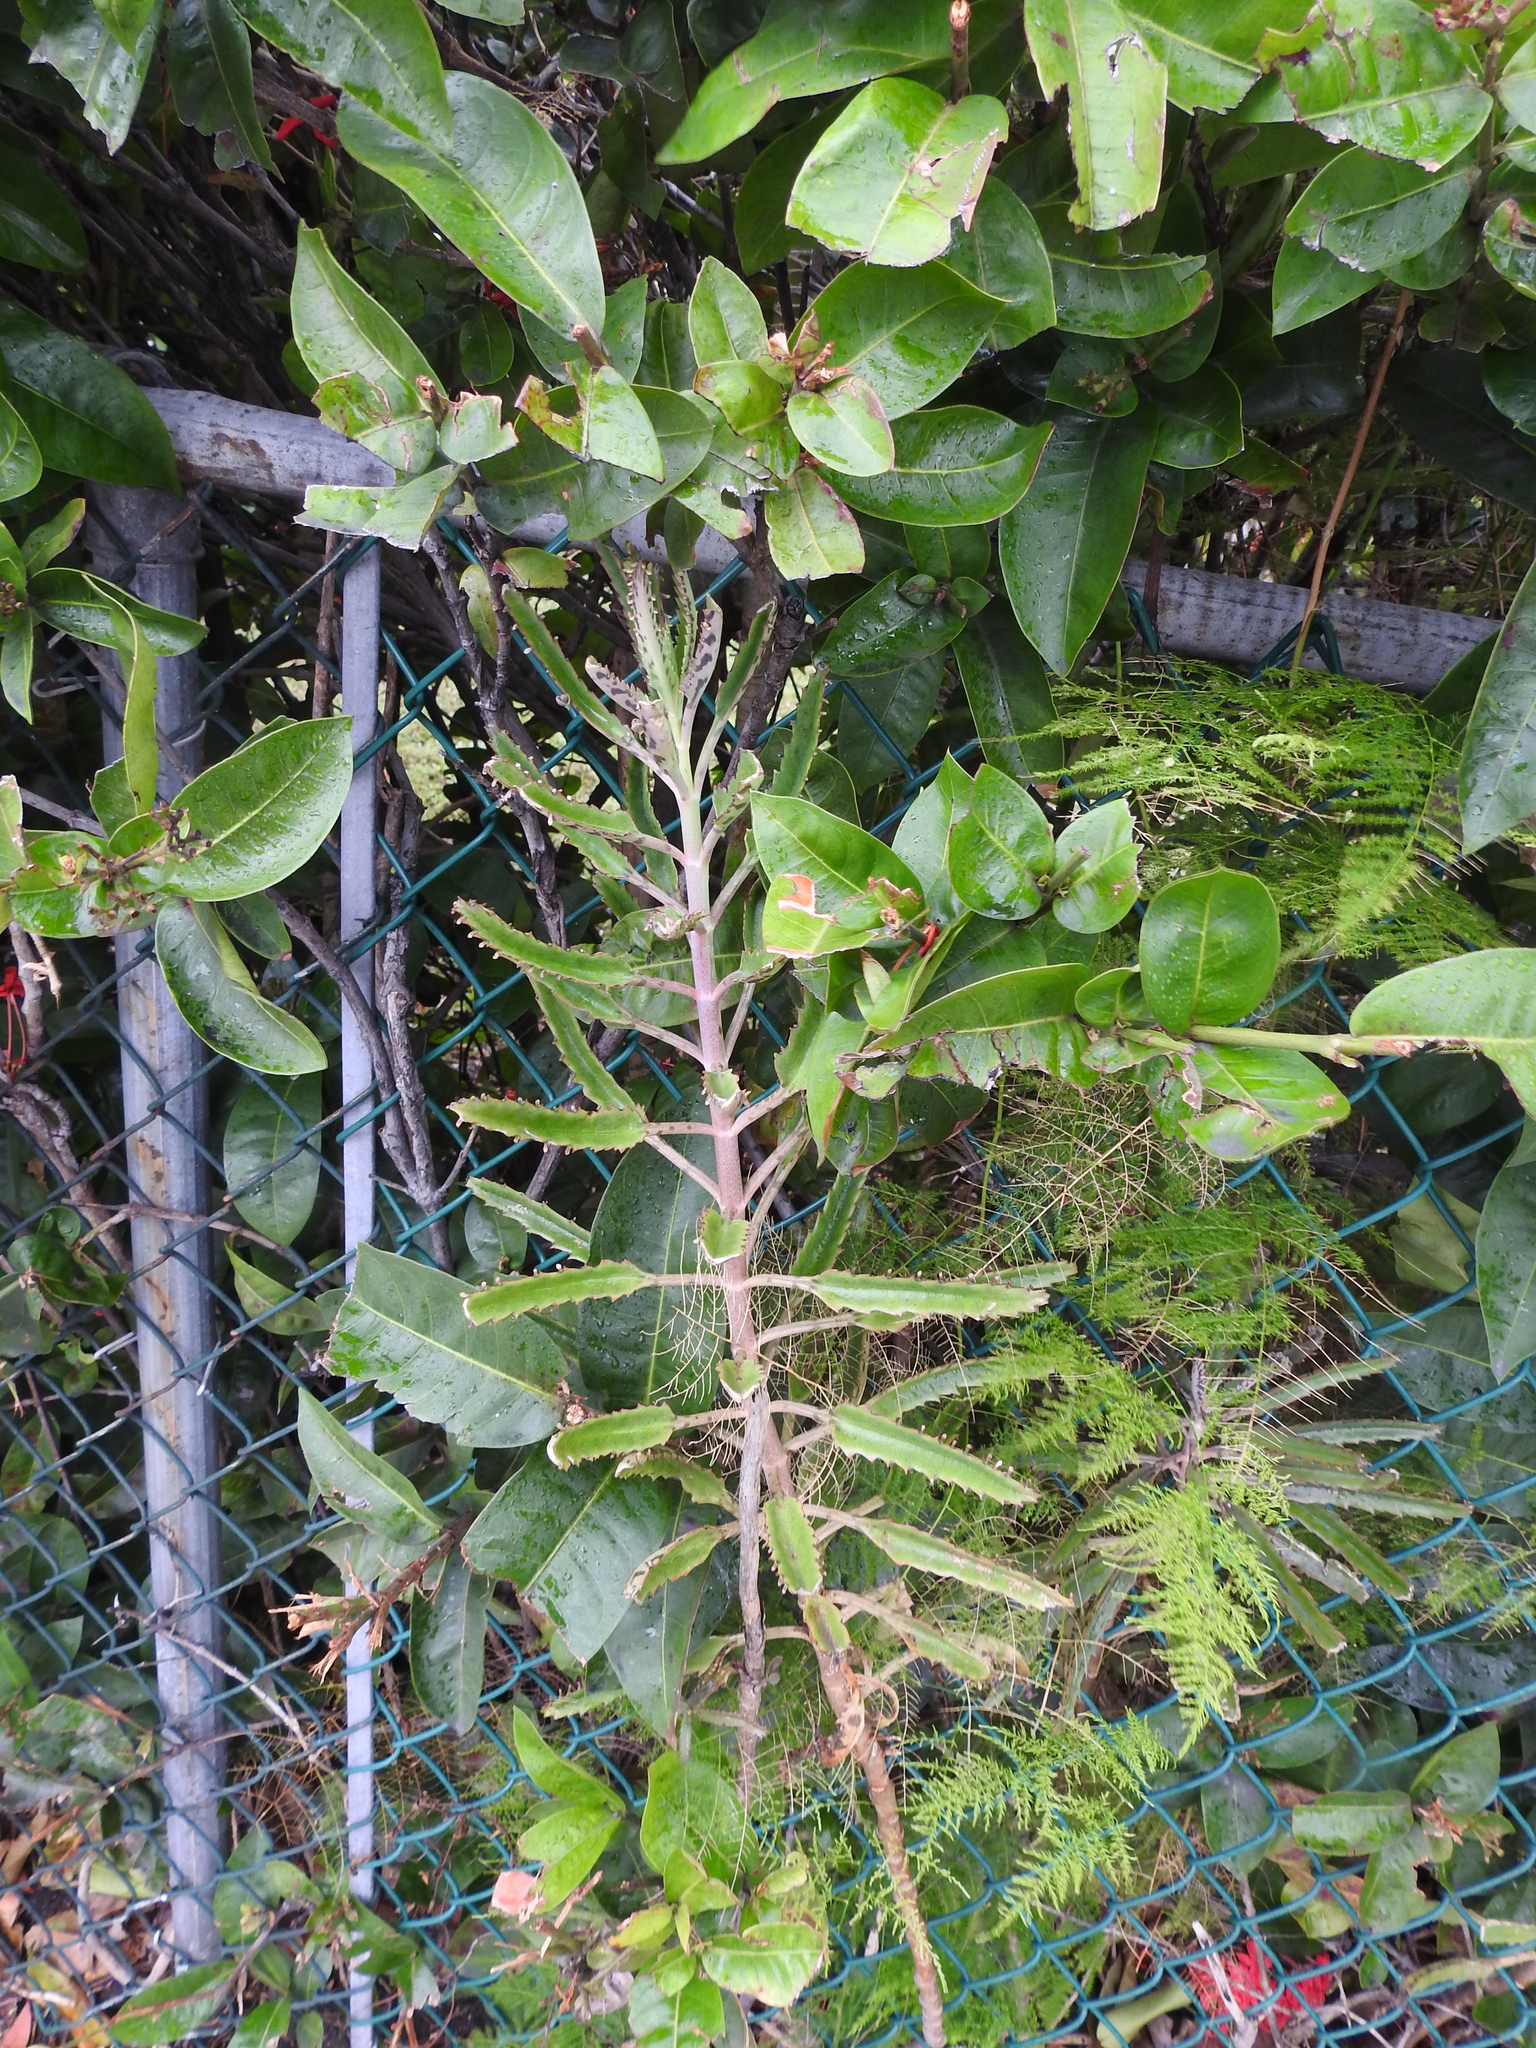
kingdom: Plantae
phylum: Tracheophyta
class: Magnoliopsida
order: Saxifragales
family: Crassulaceae
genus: Kalanchoe
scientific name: Kalanchoe houghtonii
